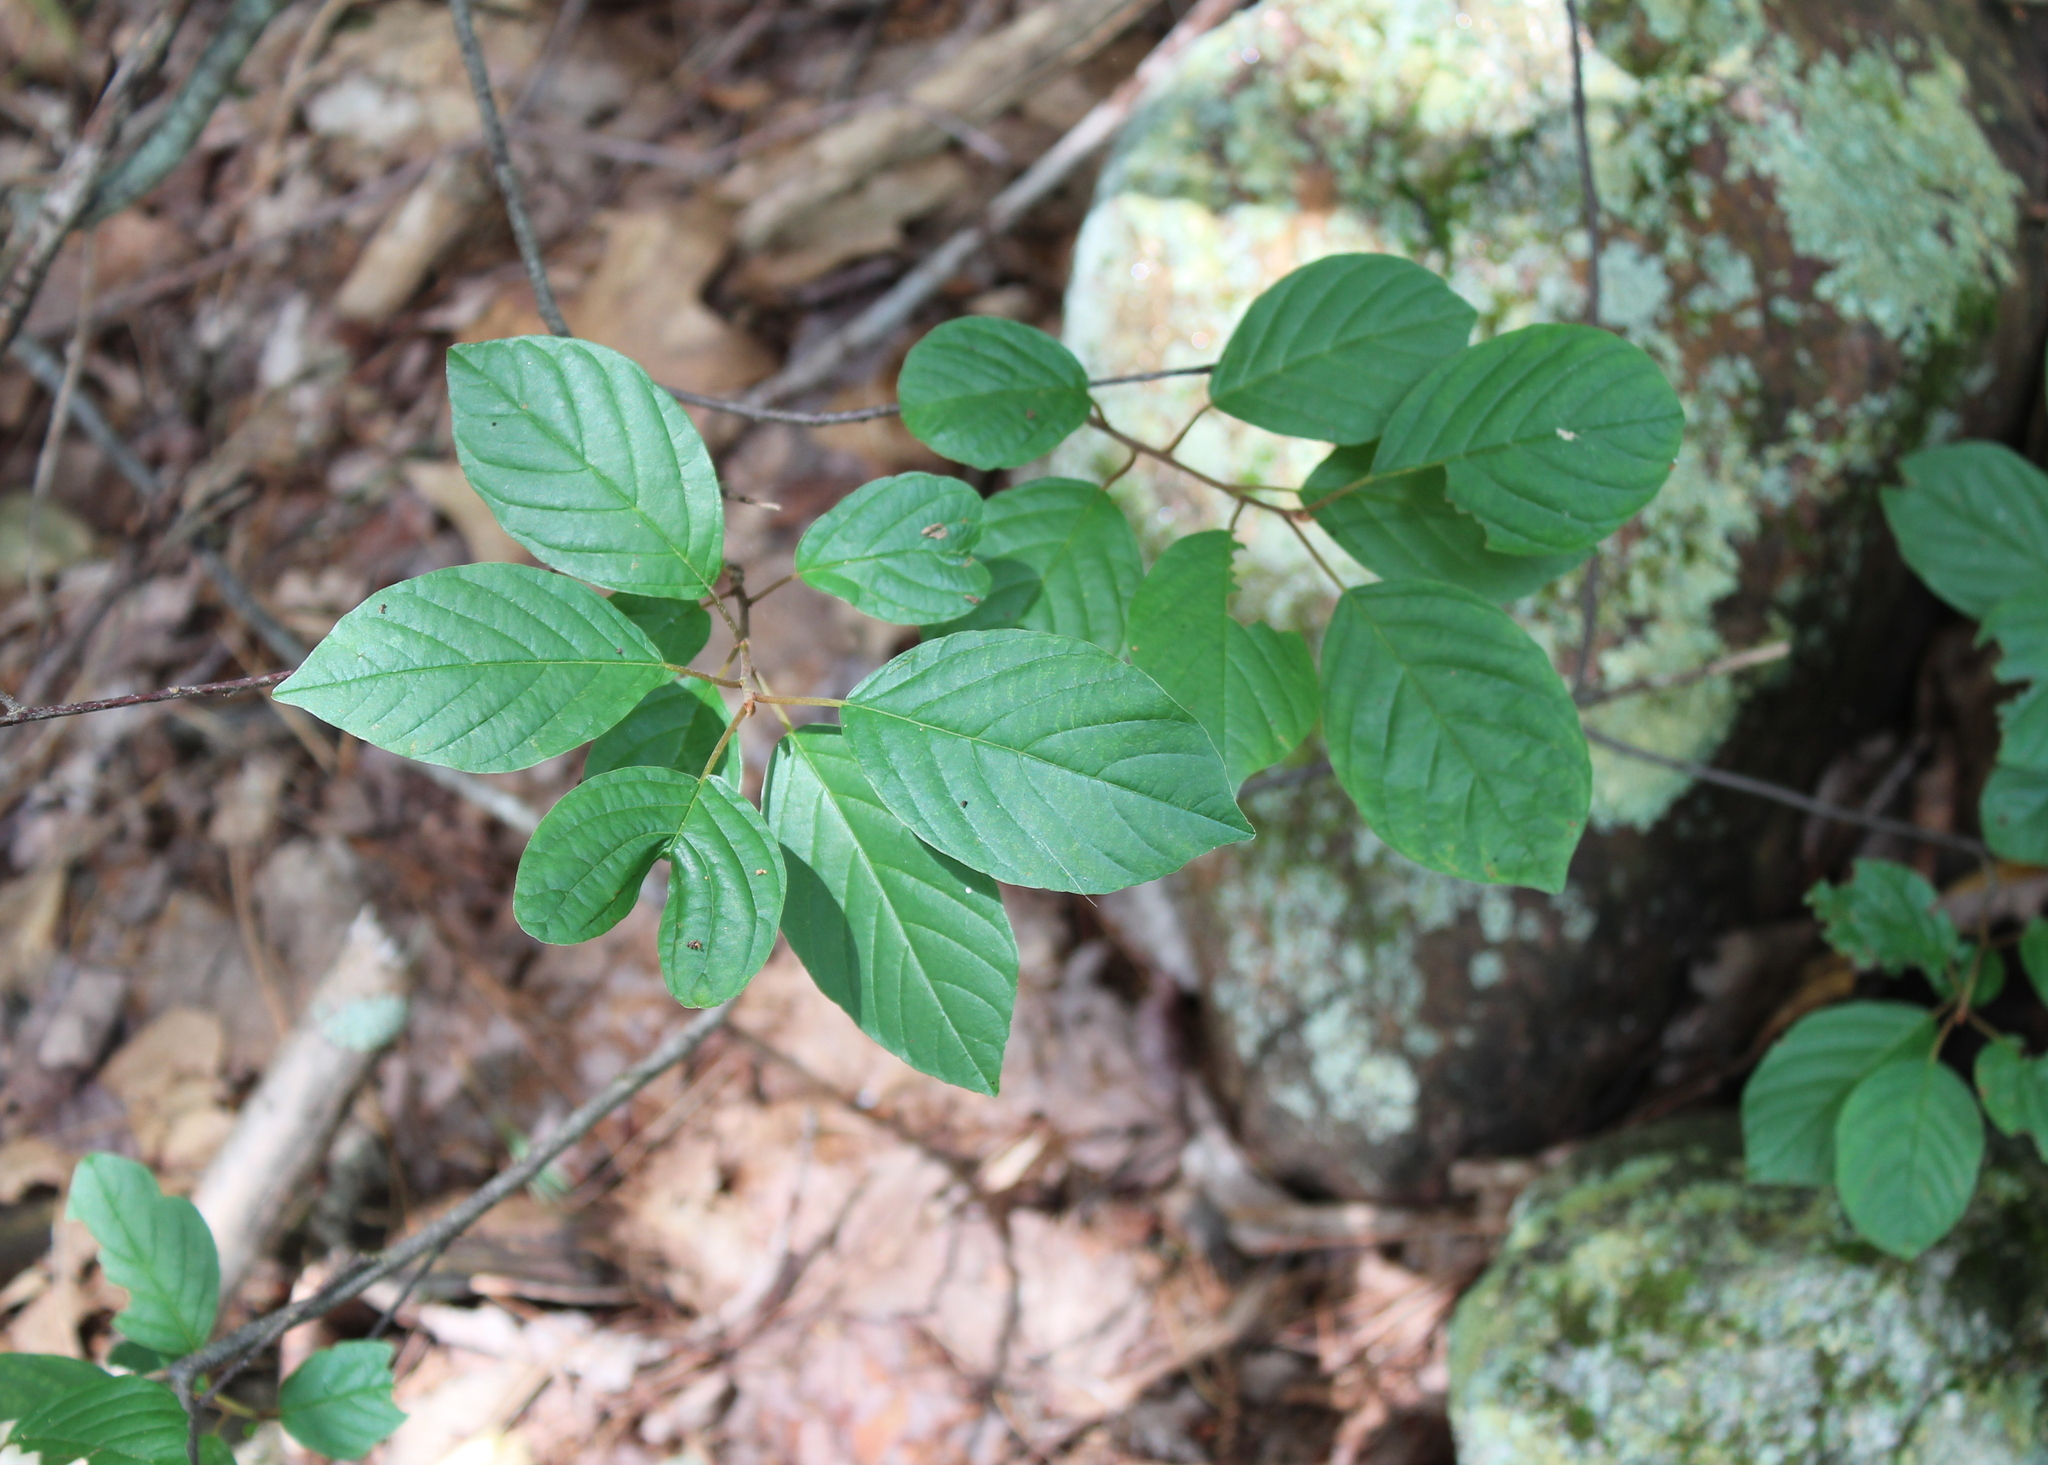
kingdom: Plantae
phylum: Tracheophyta
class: Magnoliopsida
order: Rosales
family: Rhamnaceae
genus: Frangula
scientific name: Frangula alnus
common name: Alder buckthorn
